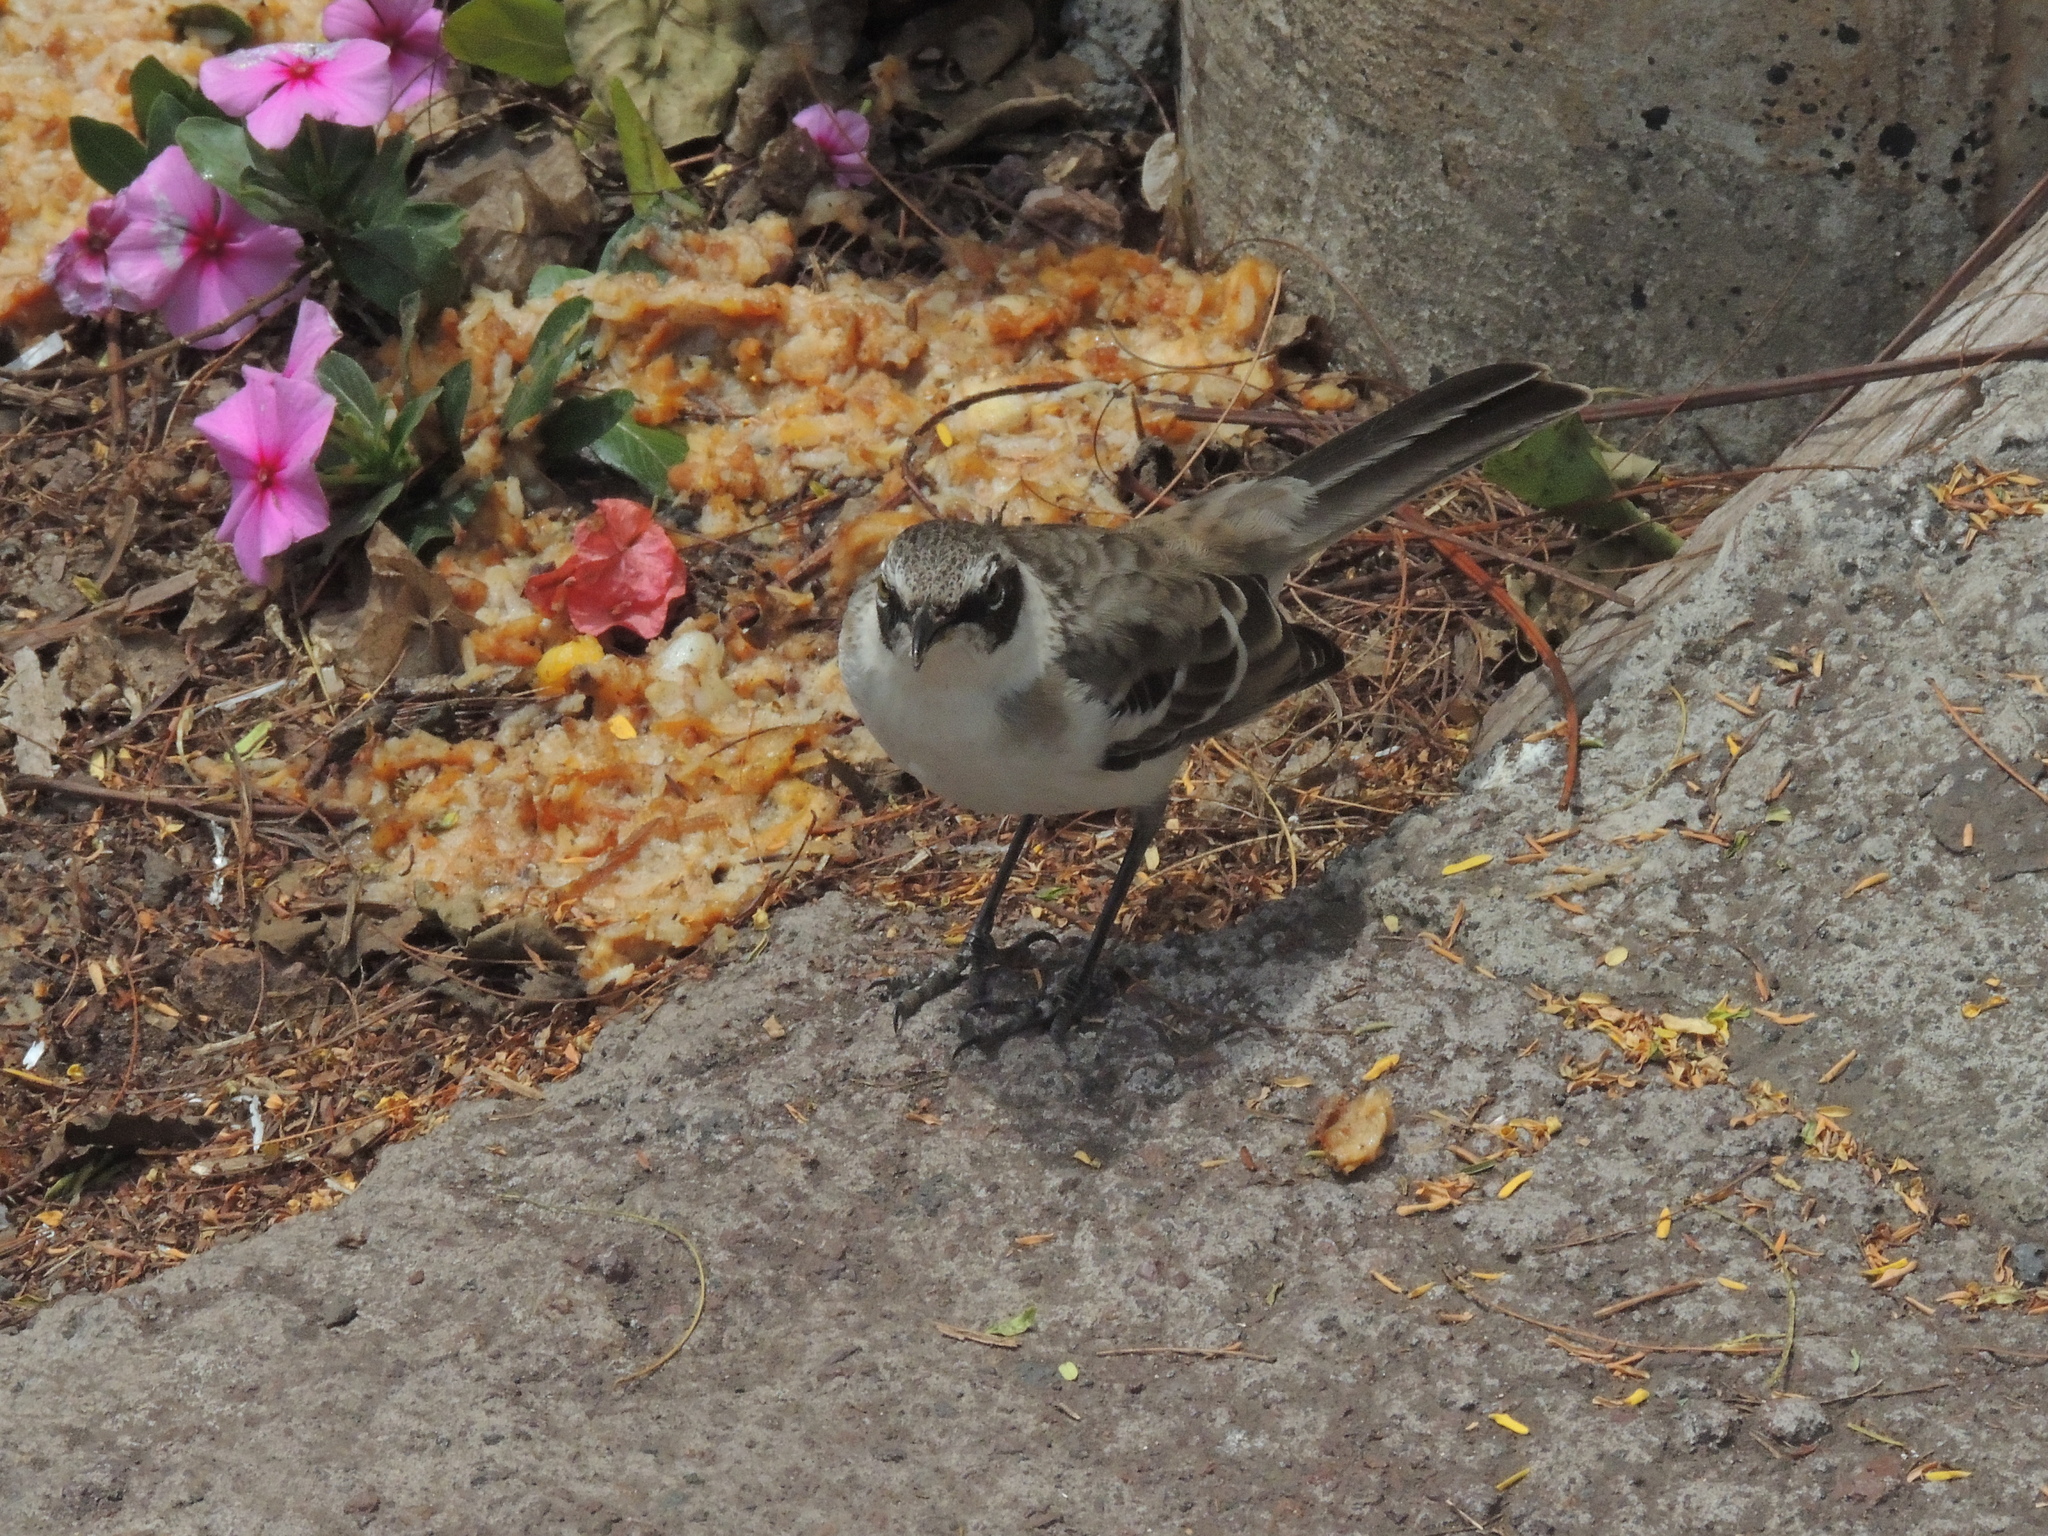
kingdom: Animalia
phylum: Chordata
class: Aves
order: Passeriformes
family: Mimidae
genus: Mimus
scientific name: Mimus parvulus
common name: Galapagos mockingbird
